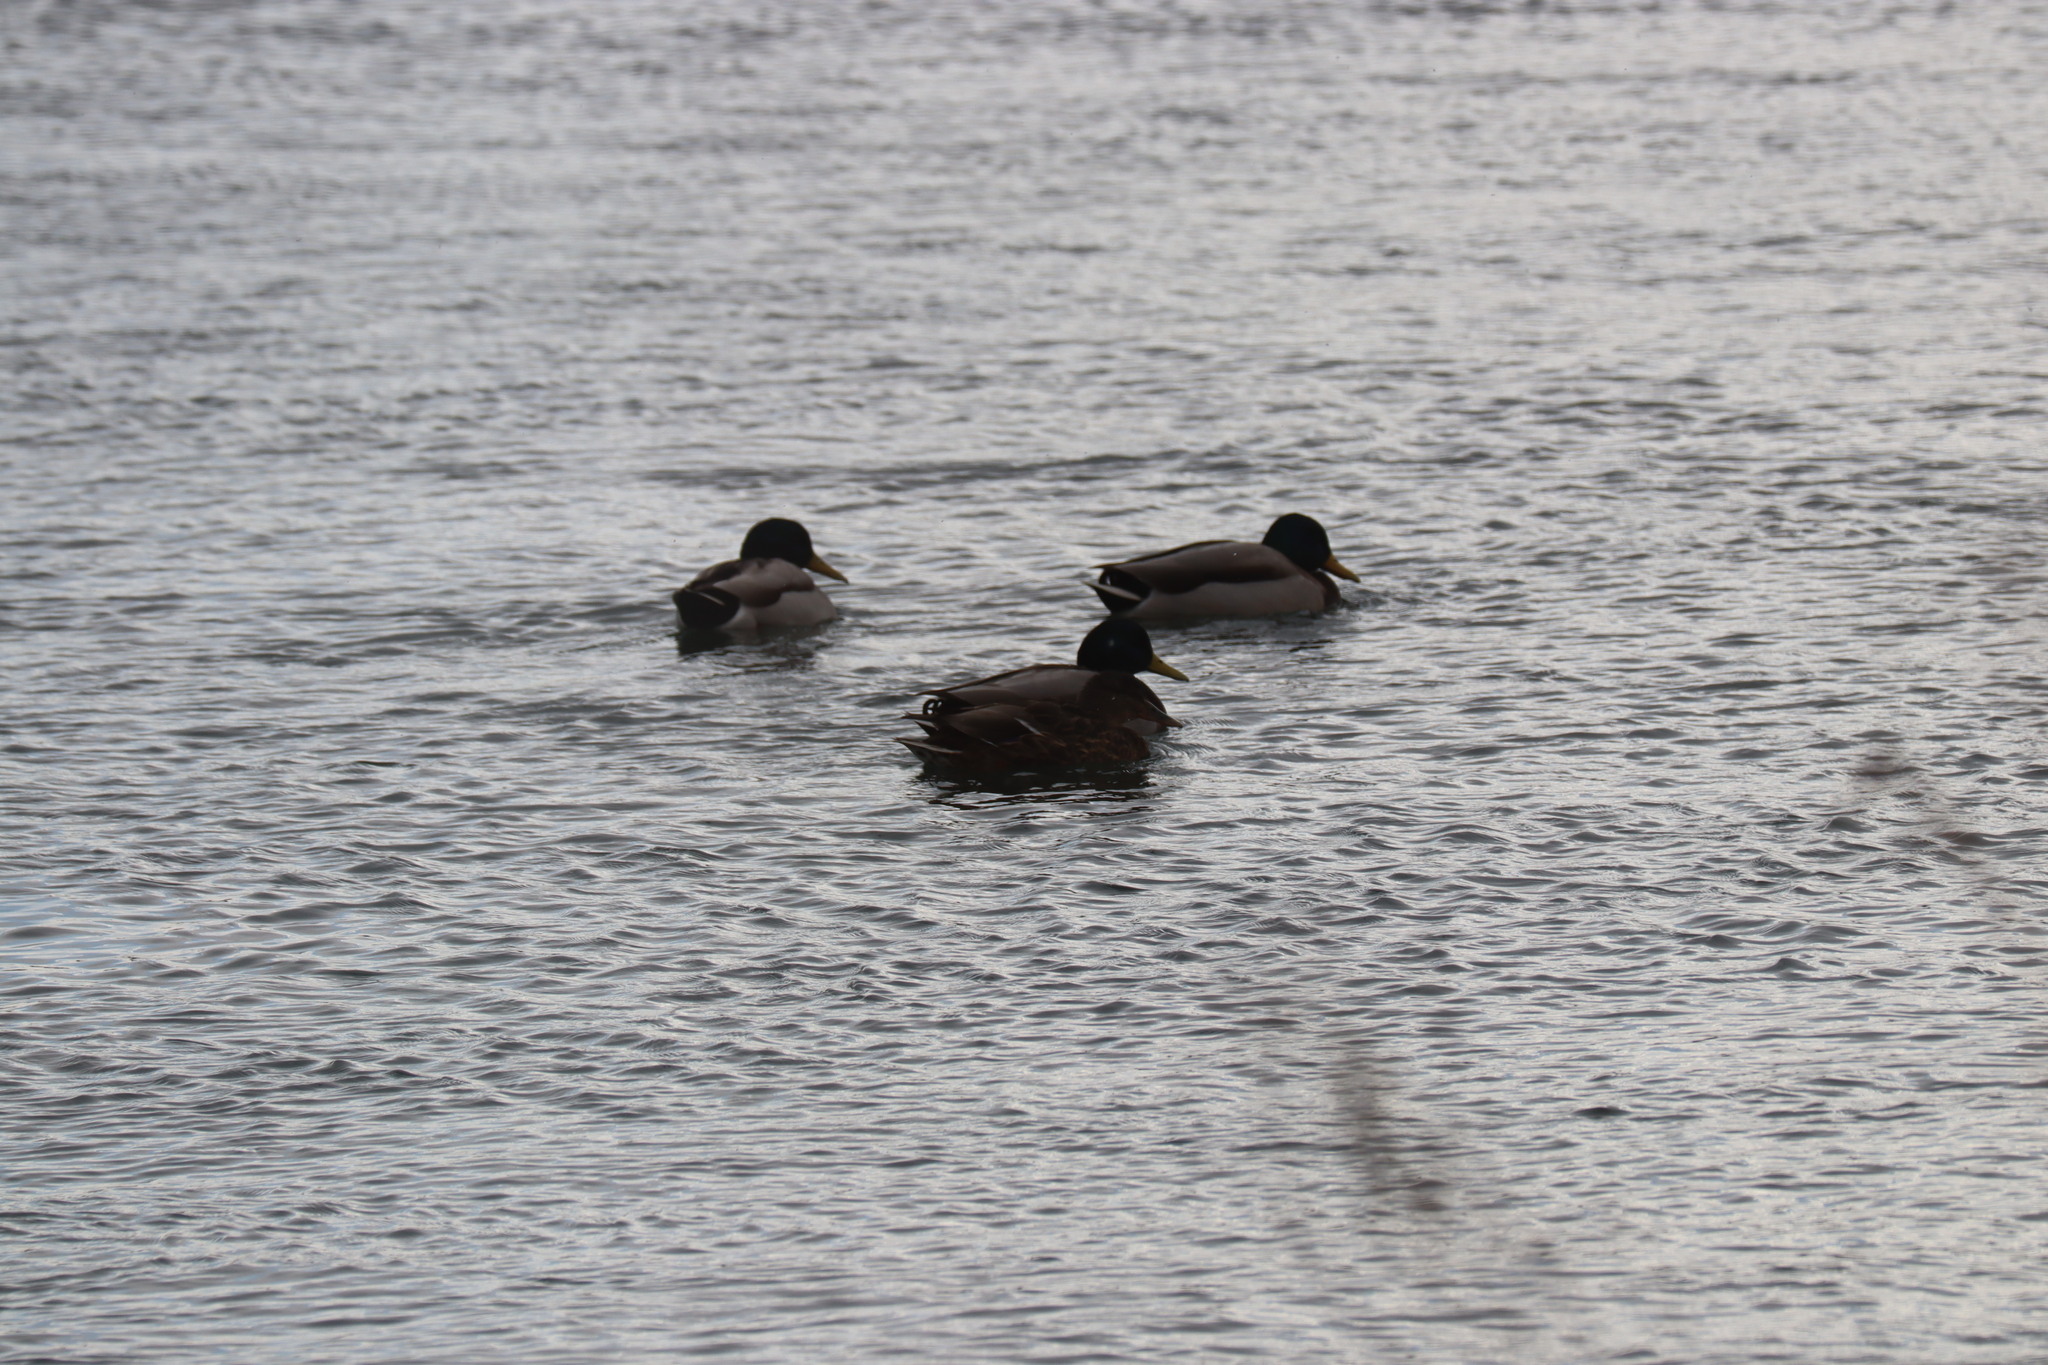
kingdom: Animalia
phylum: Chordata
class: Aves
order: Anseriformes
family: Anatidae
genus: Anas
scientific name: Anas platyrhynchos
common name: Mallard
